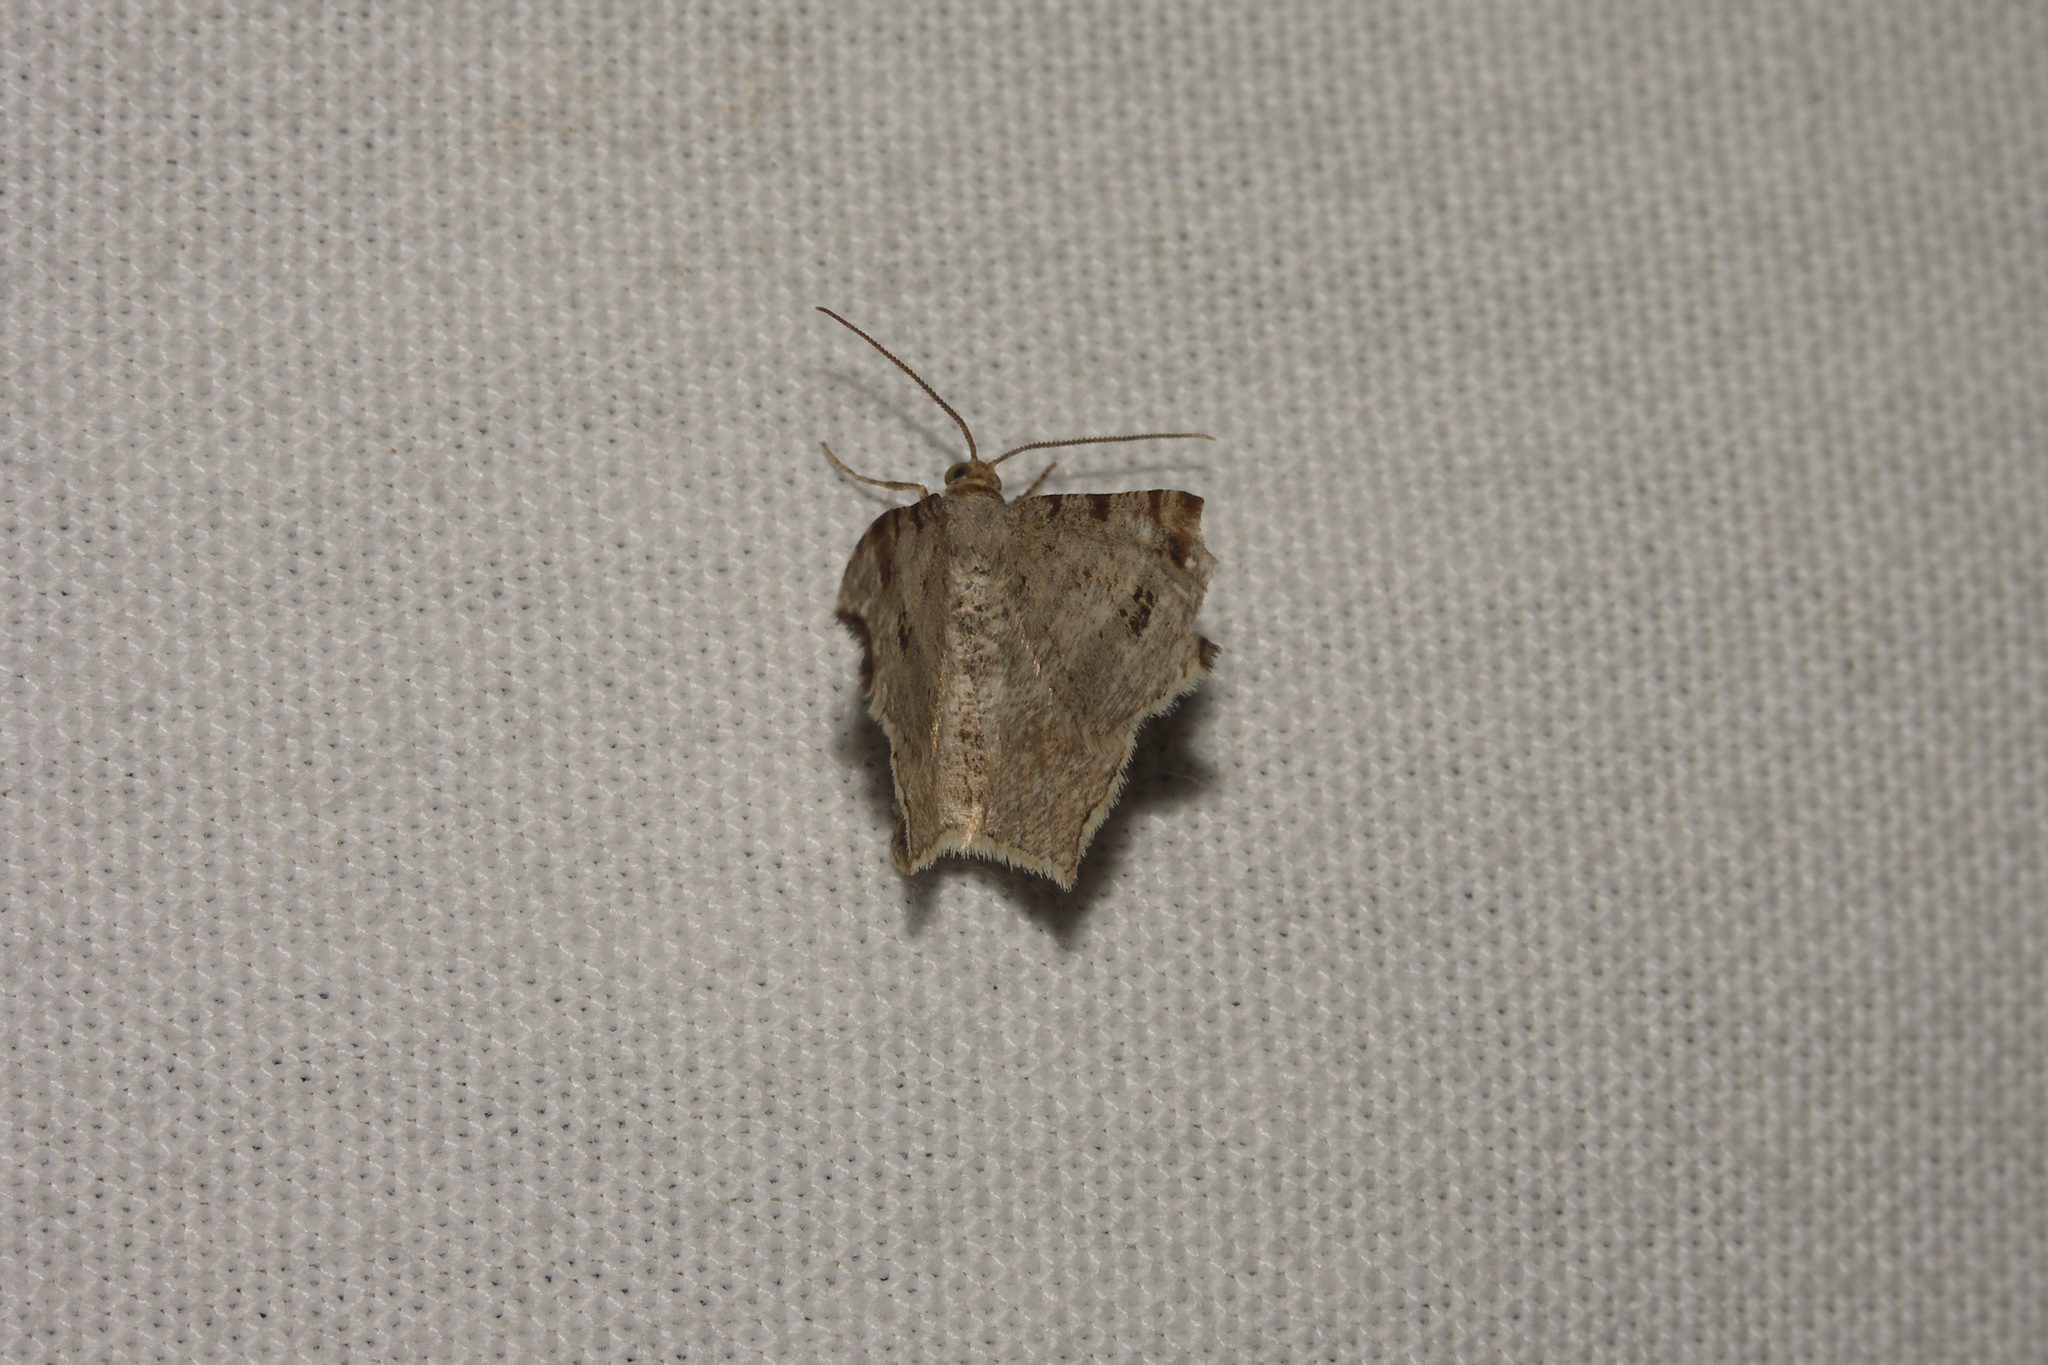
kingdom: Animalia
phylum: Arthropoda
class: Insecta
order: Lepidoptera
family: Geometridae
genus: Macaria
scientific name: Macaria alternata
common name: Sharp-angled peacock
